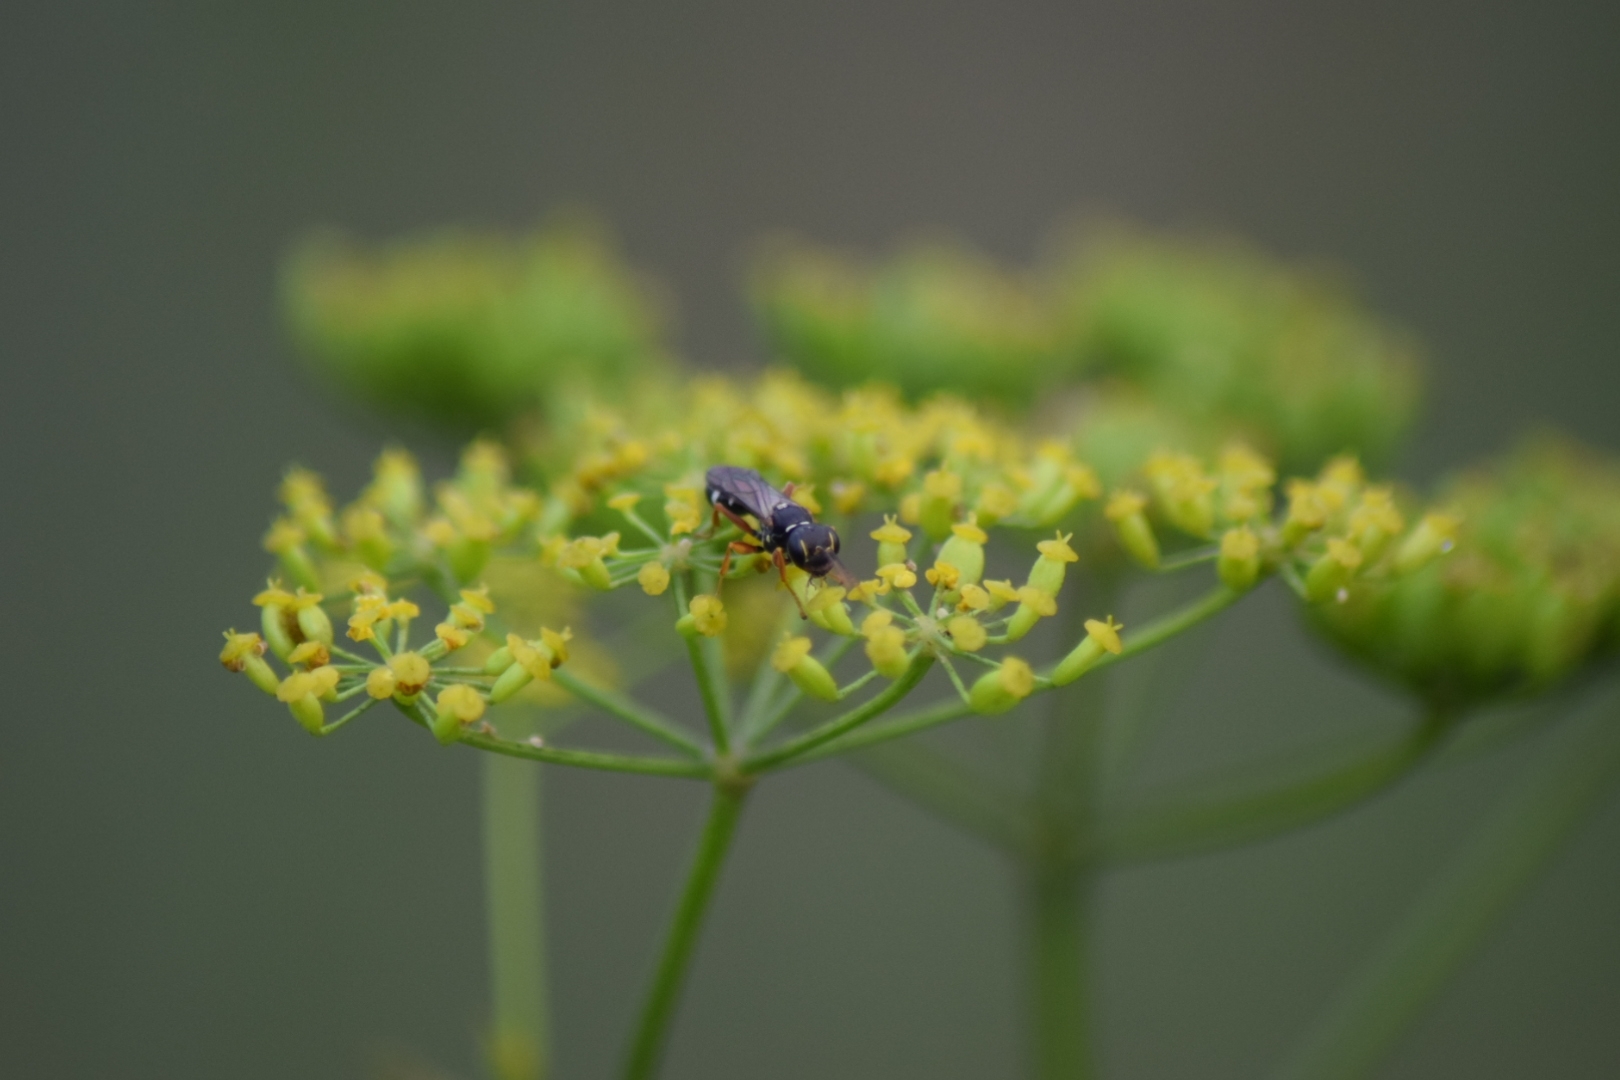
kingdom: Animalia
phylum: Arthropoda
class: Insecta
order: Hymenoptera
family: Crabronidae
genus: Mellinus
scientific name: Mellinus crabroneus
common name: Sand digger wasp
